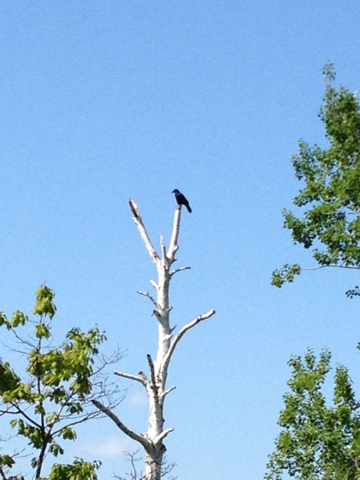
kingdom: Animalia
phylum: Chordata
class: Aves
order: Passeriformes
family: Corvidae
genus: Corvus
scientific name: Corvus
